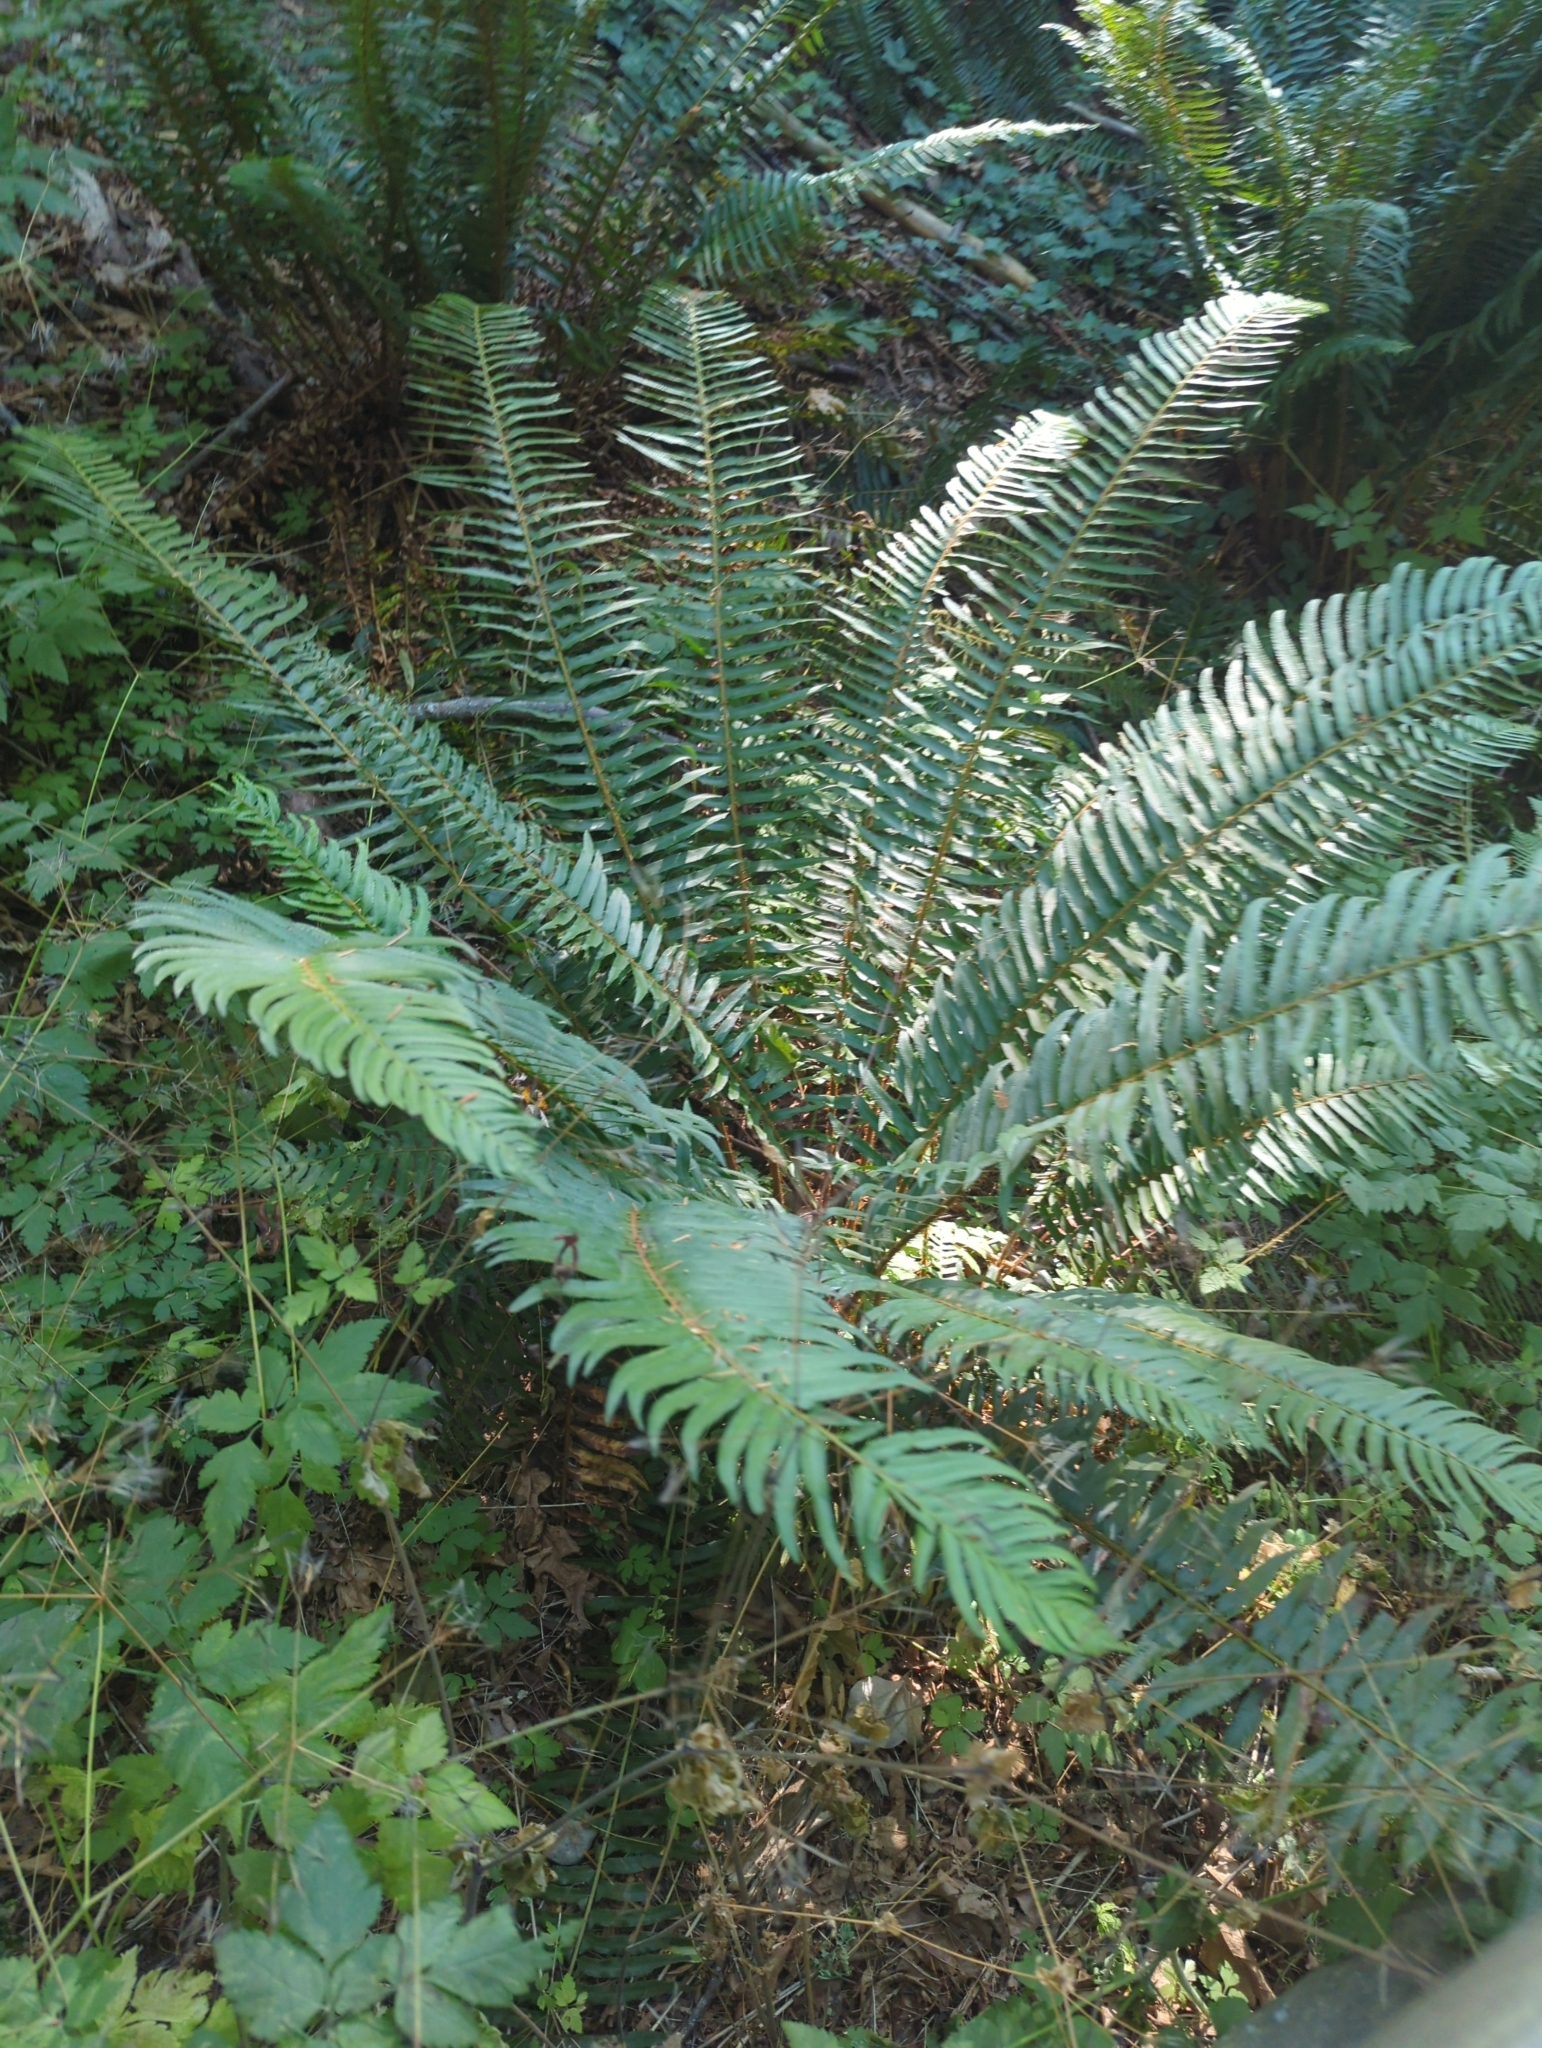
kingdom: Plantae
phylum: Tracheophyta
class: Polypodiopsida
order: Polypodiales
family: Dryopteridaceae
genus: Polystichum
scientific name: Polystichum munitum
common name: Western sword-fern
